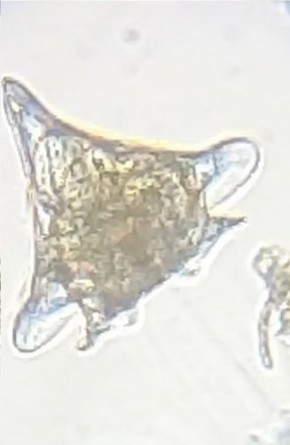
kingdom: Animalia
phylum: Rotifera
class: Eurotatoria
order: Ploima
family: Euchlanidae
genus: Euchlanis
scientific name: Euchlanis triquetra
